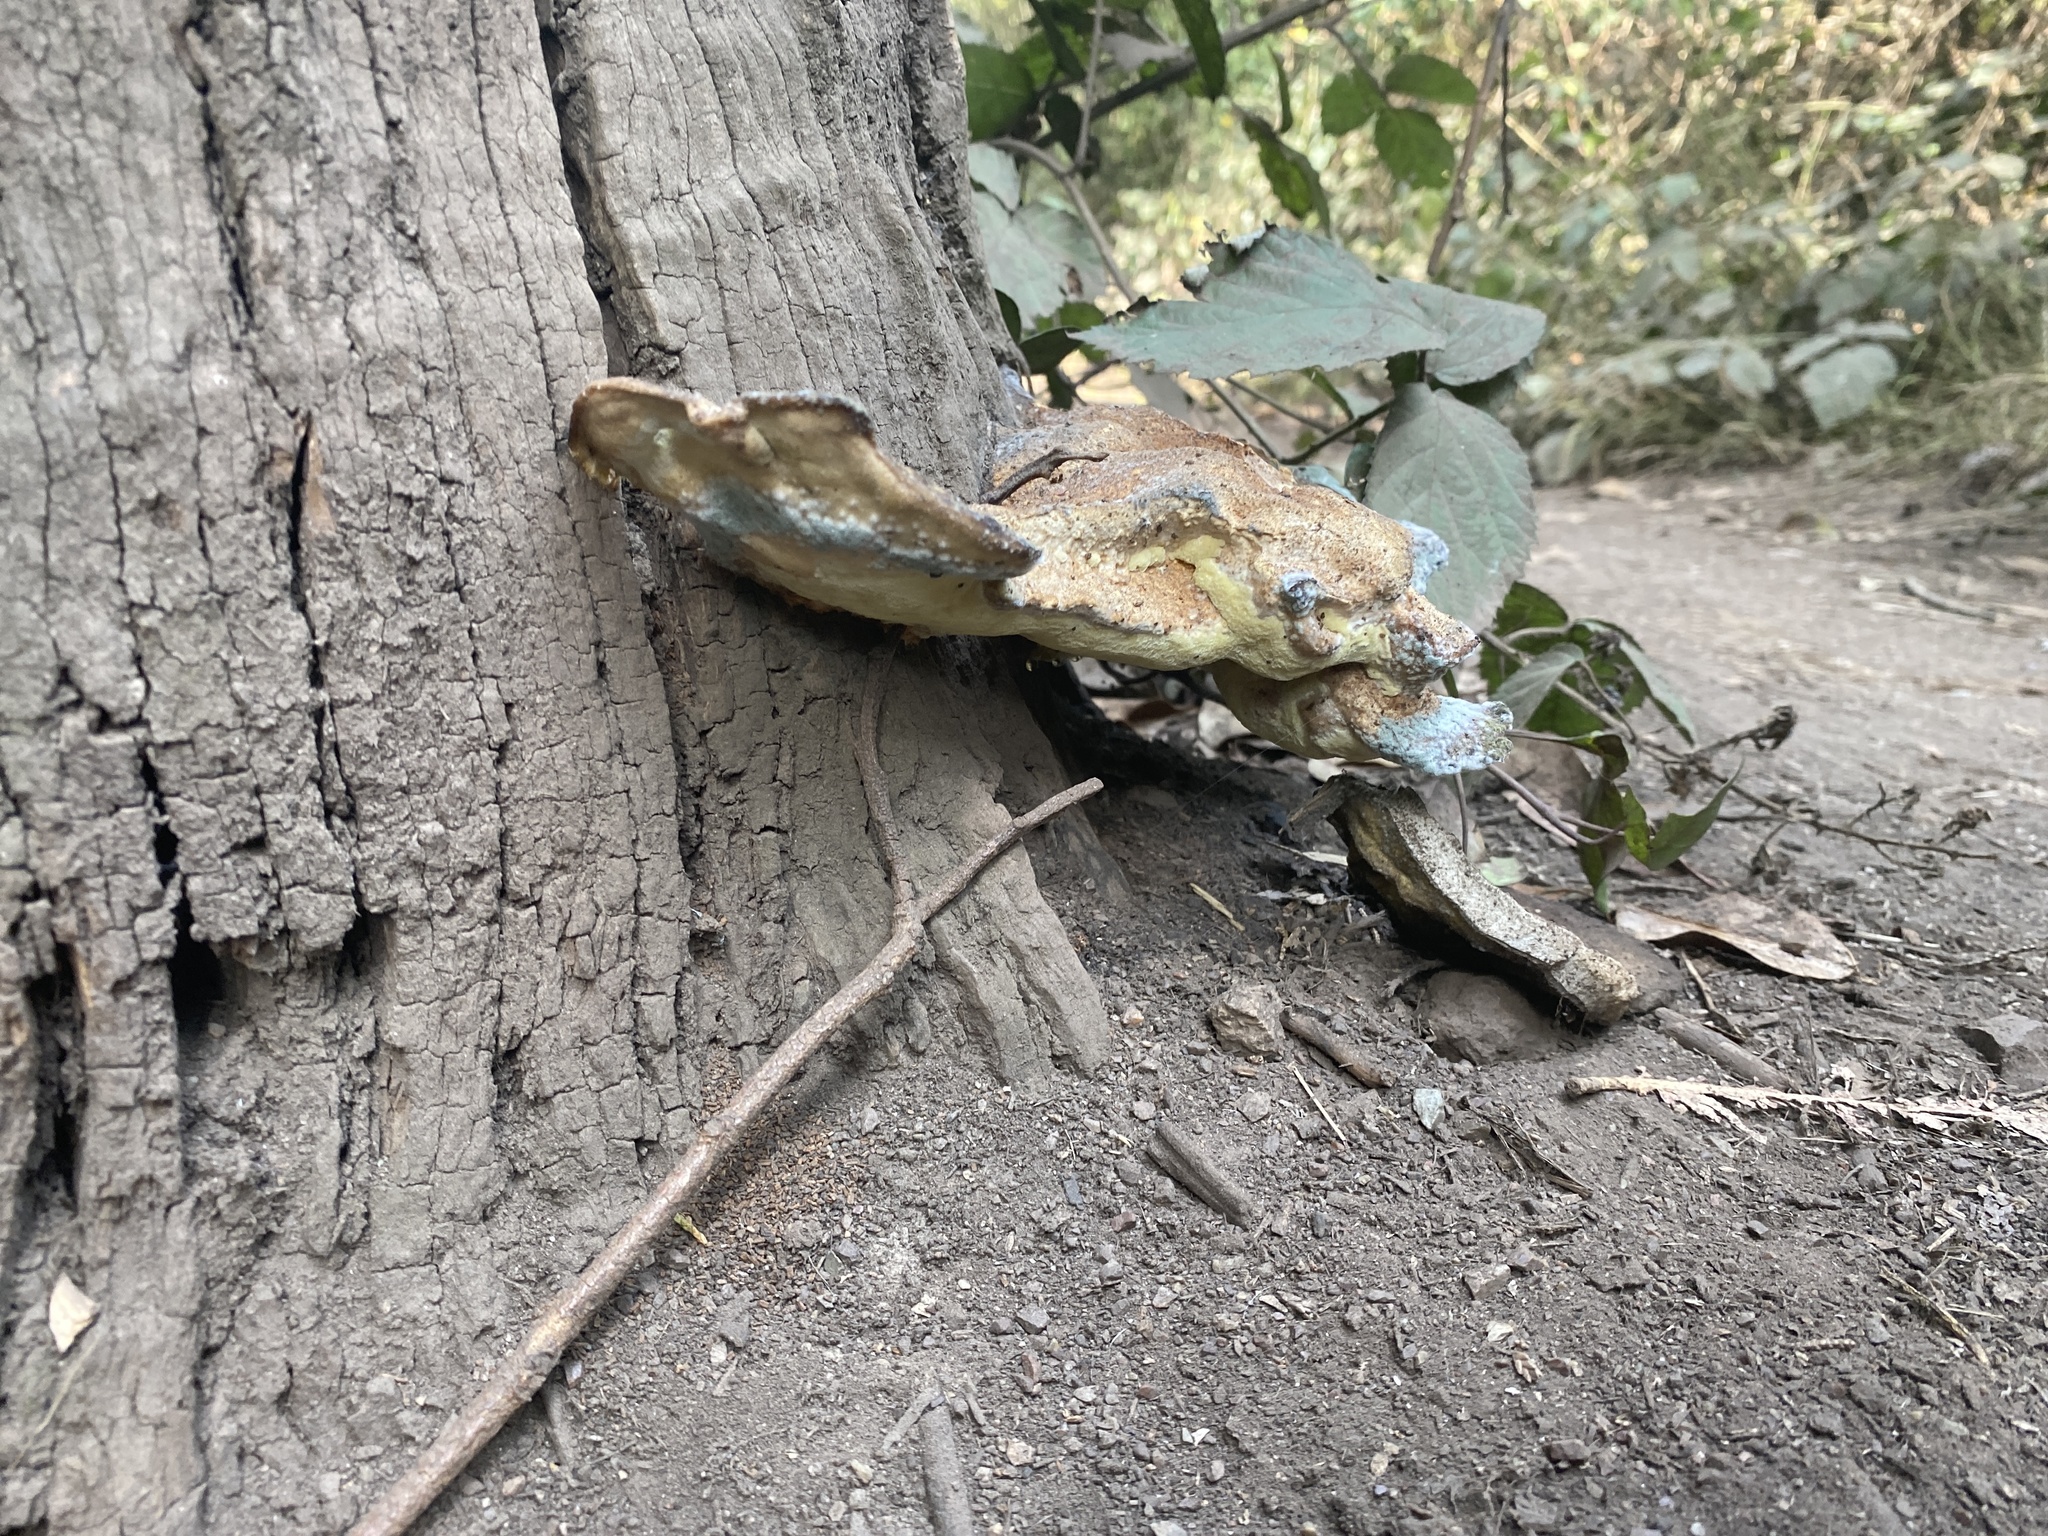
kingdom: Fungi
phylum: Basidiomycota
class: Agaricomycetes
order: Polyporales
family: Laetiporaceae
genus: Laetiporus
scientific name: Laetiporus gilbertsonii
